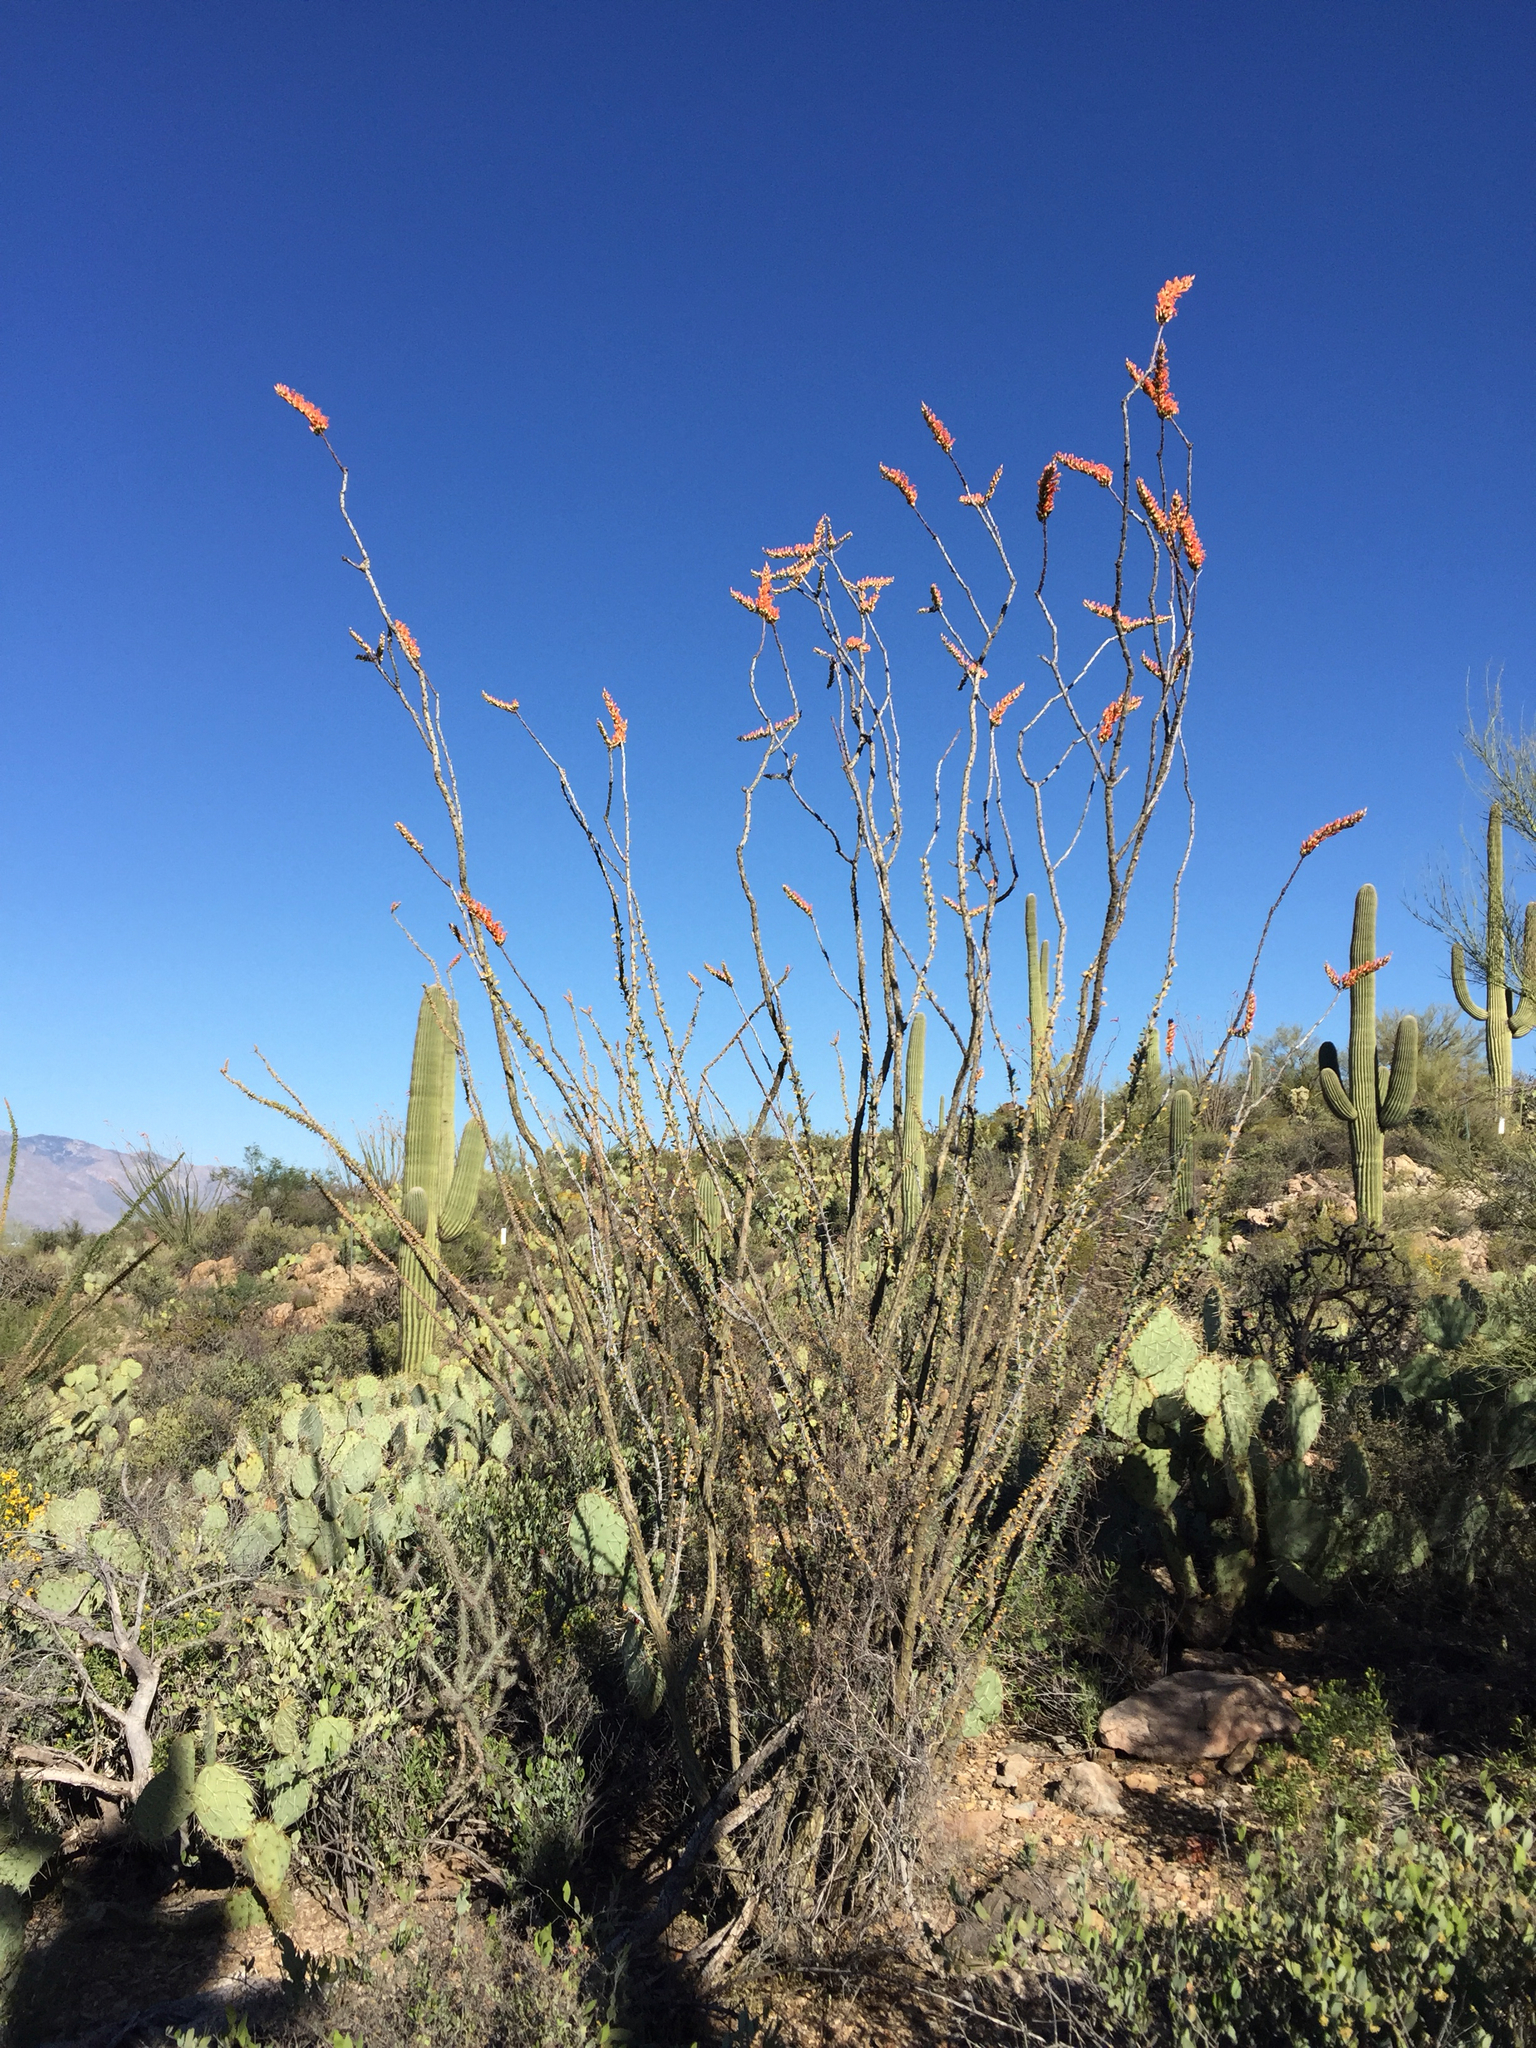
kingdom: Plantae
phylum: Tracheophyta
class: Magnoliopsida
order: Ericales
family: Fouquieriaceae
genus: Fouquieria
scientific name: Fouquieria splendens
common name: Vine-cactus
